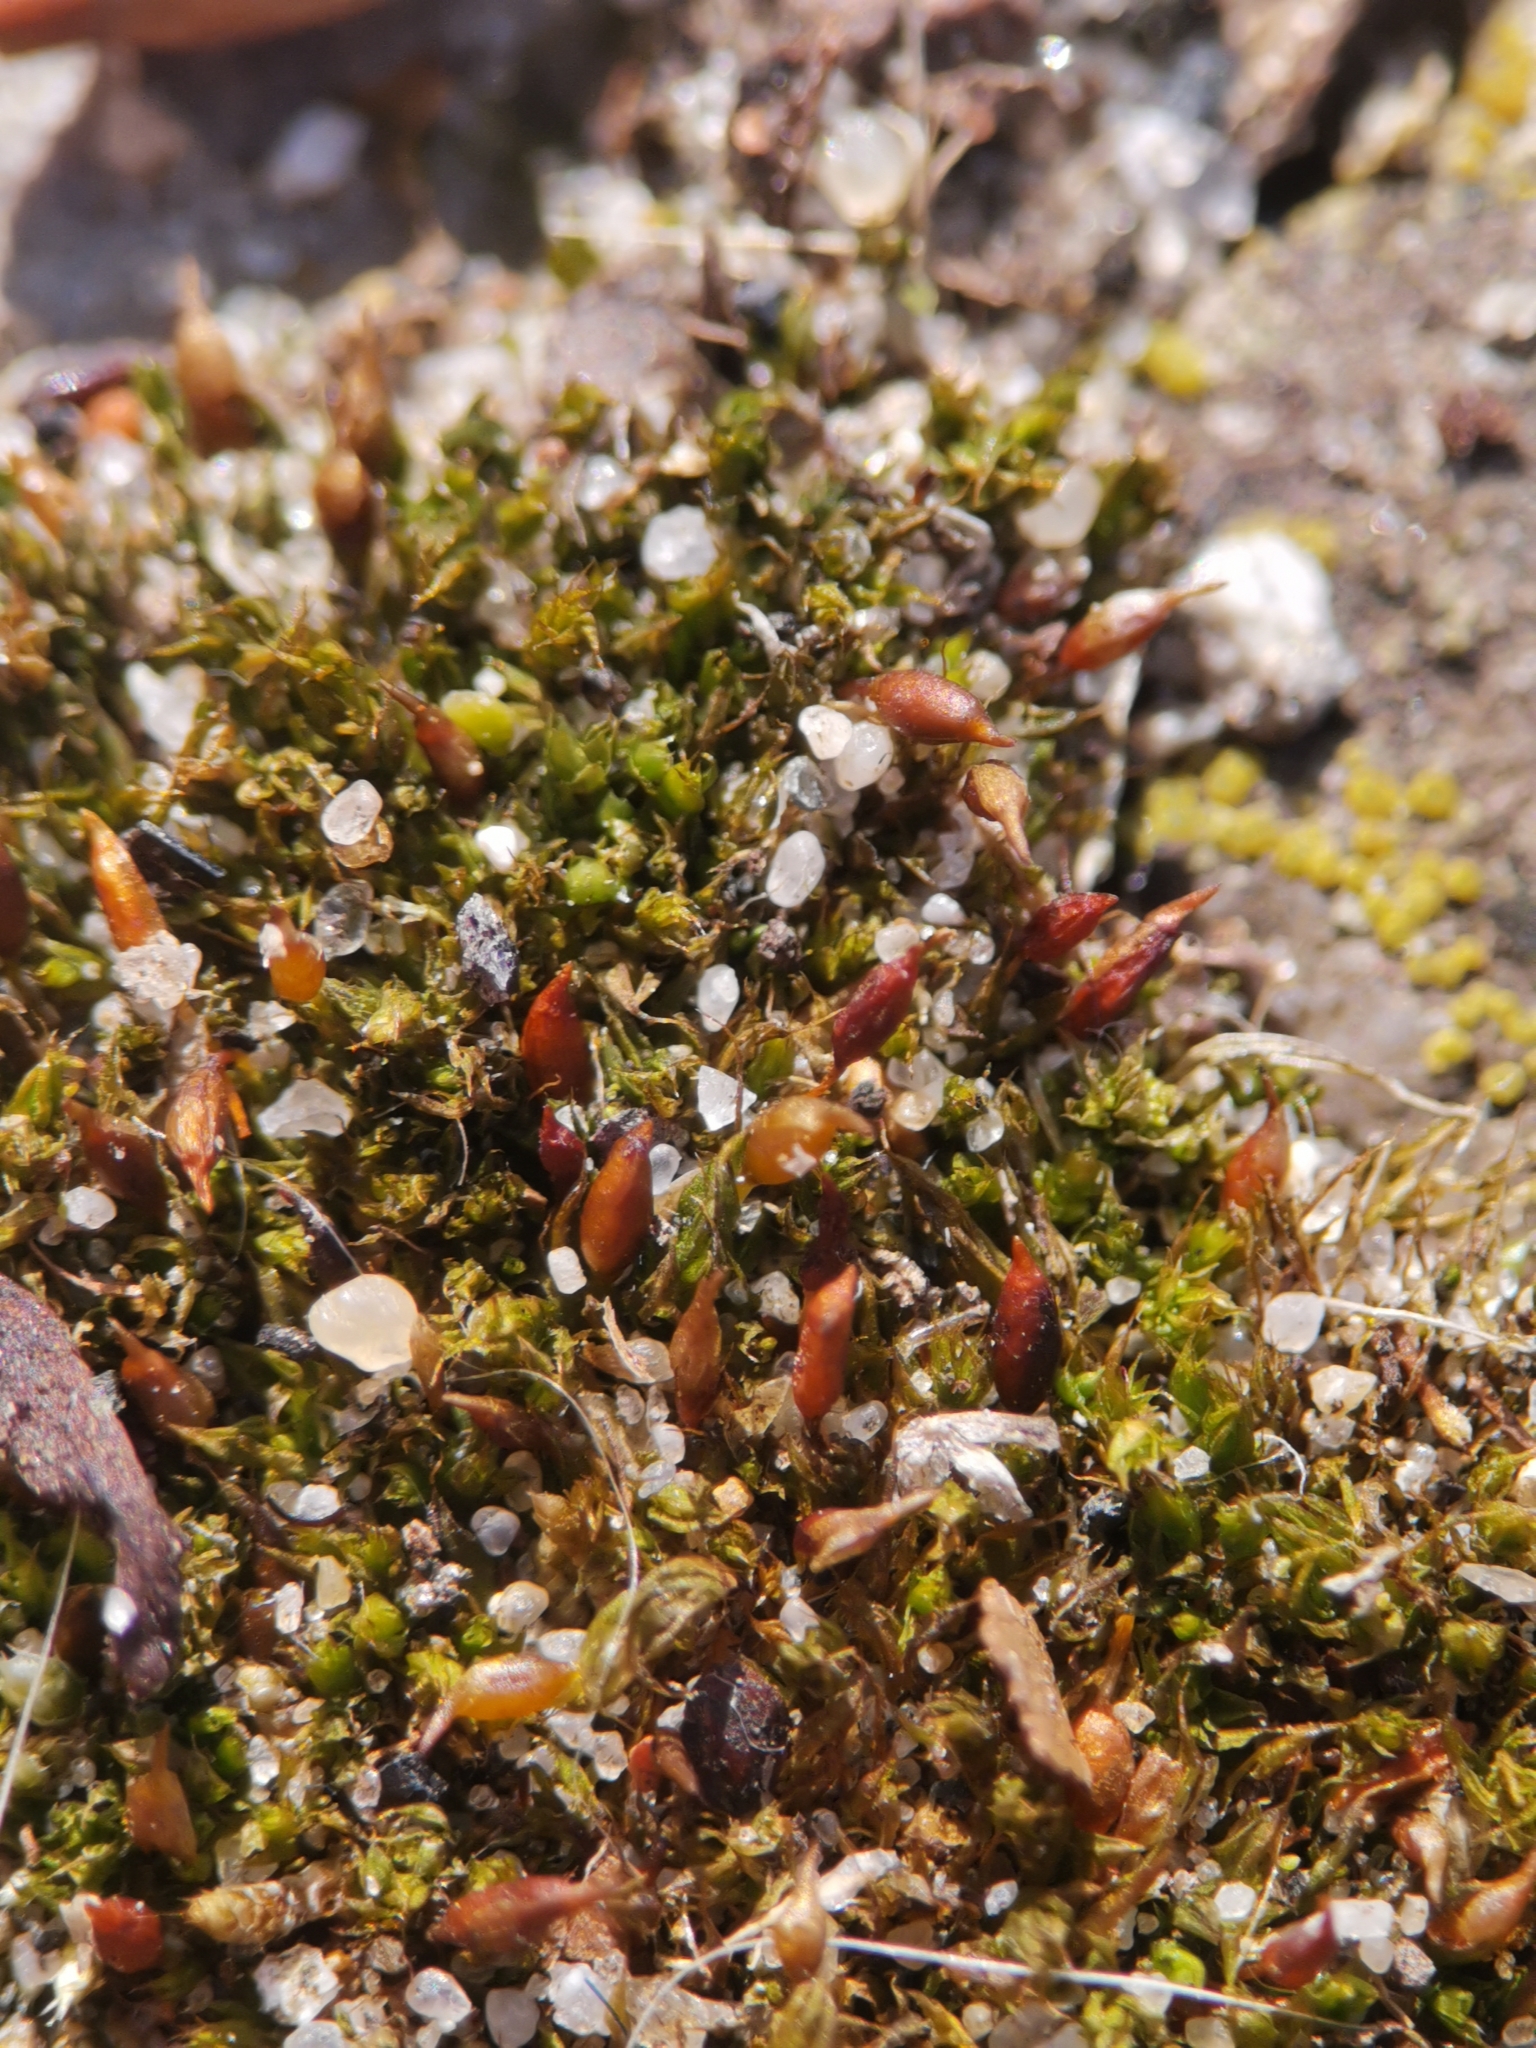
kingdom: Plantae
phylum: Bryophyta
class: Bryopsida
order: Pottiales
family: Pottiaceae
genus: Tortula
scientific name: Tortula protobryoides
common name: Tall pottia
